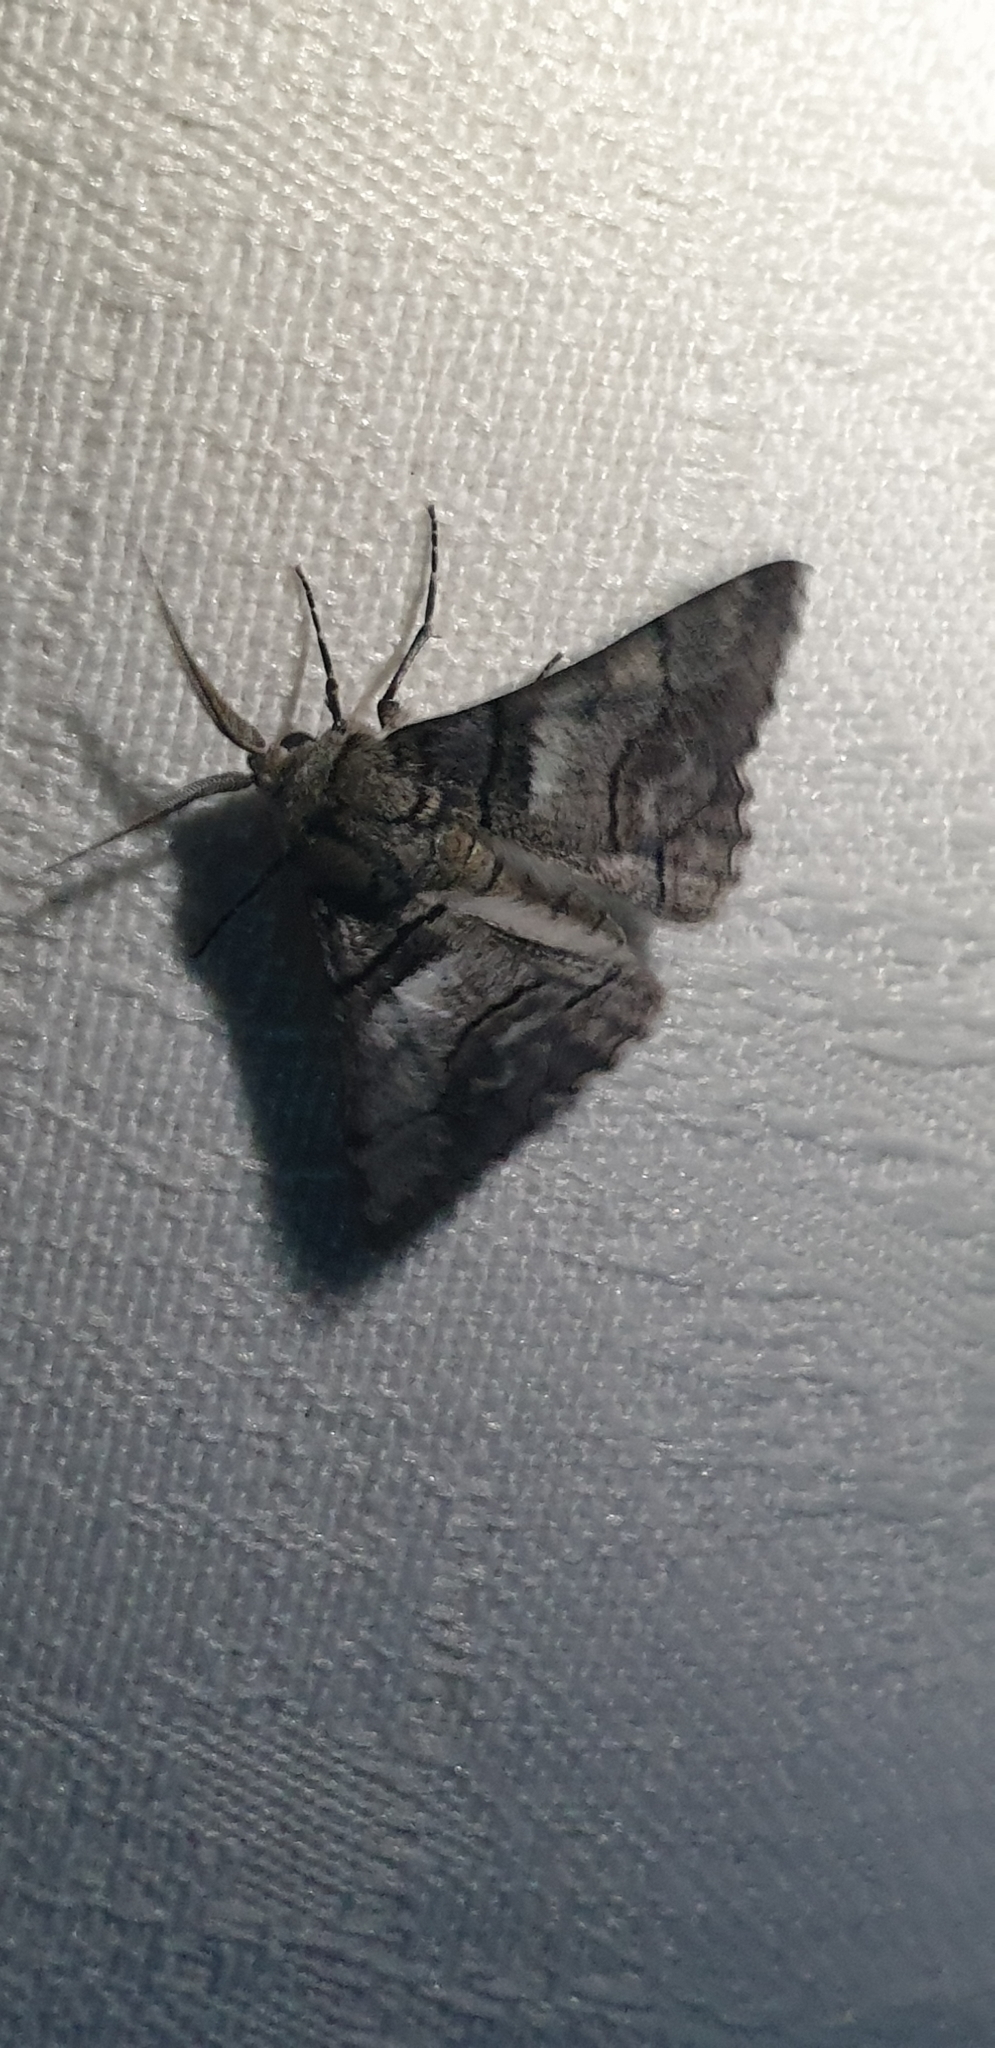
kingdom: Animalia
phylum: Arthropoda
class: Insecta
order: Lepidoptera
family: Geometridae
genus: Hypobapta
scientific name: Hypobapta diffundens
